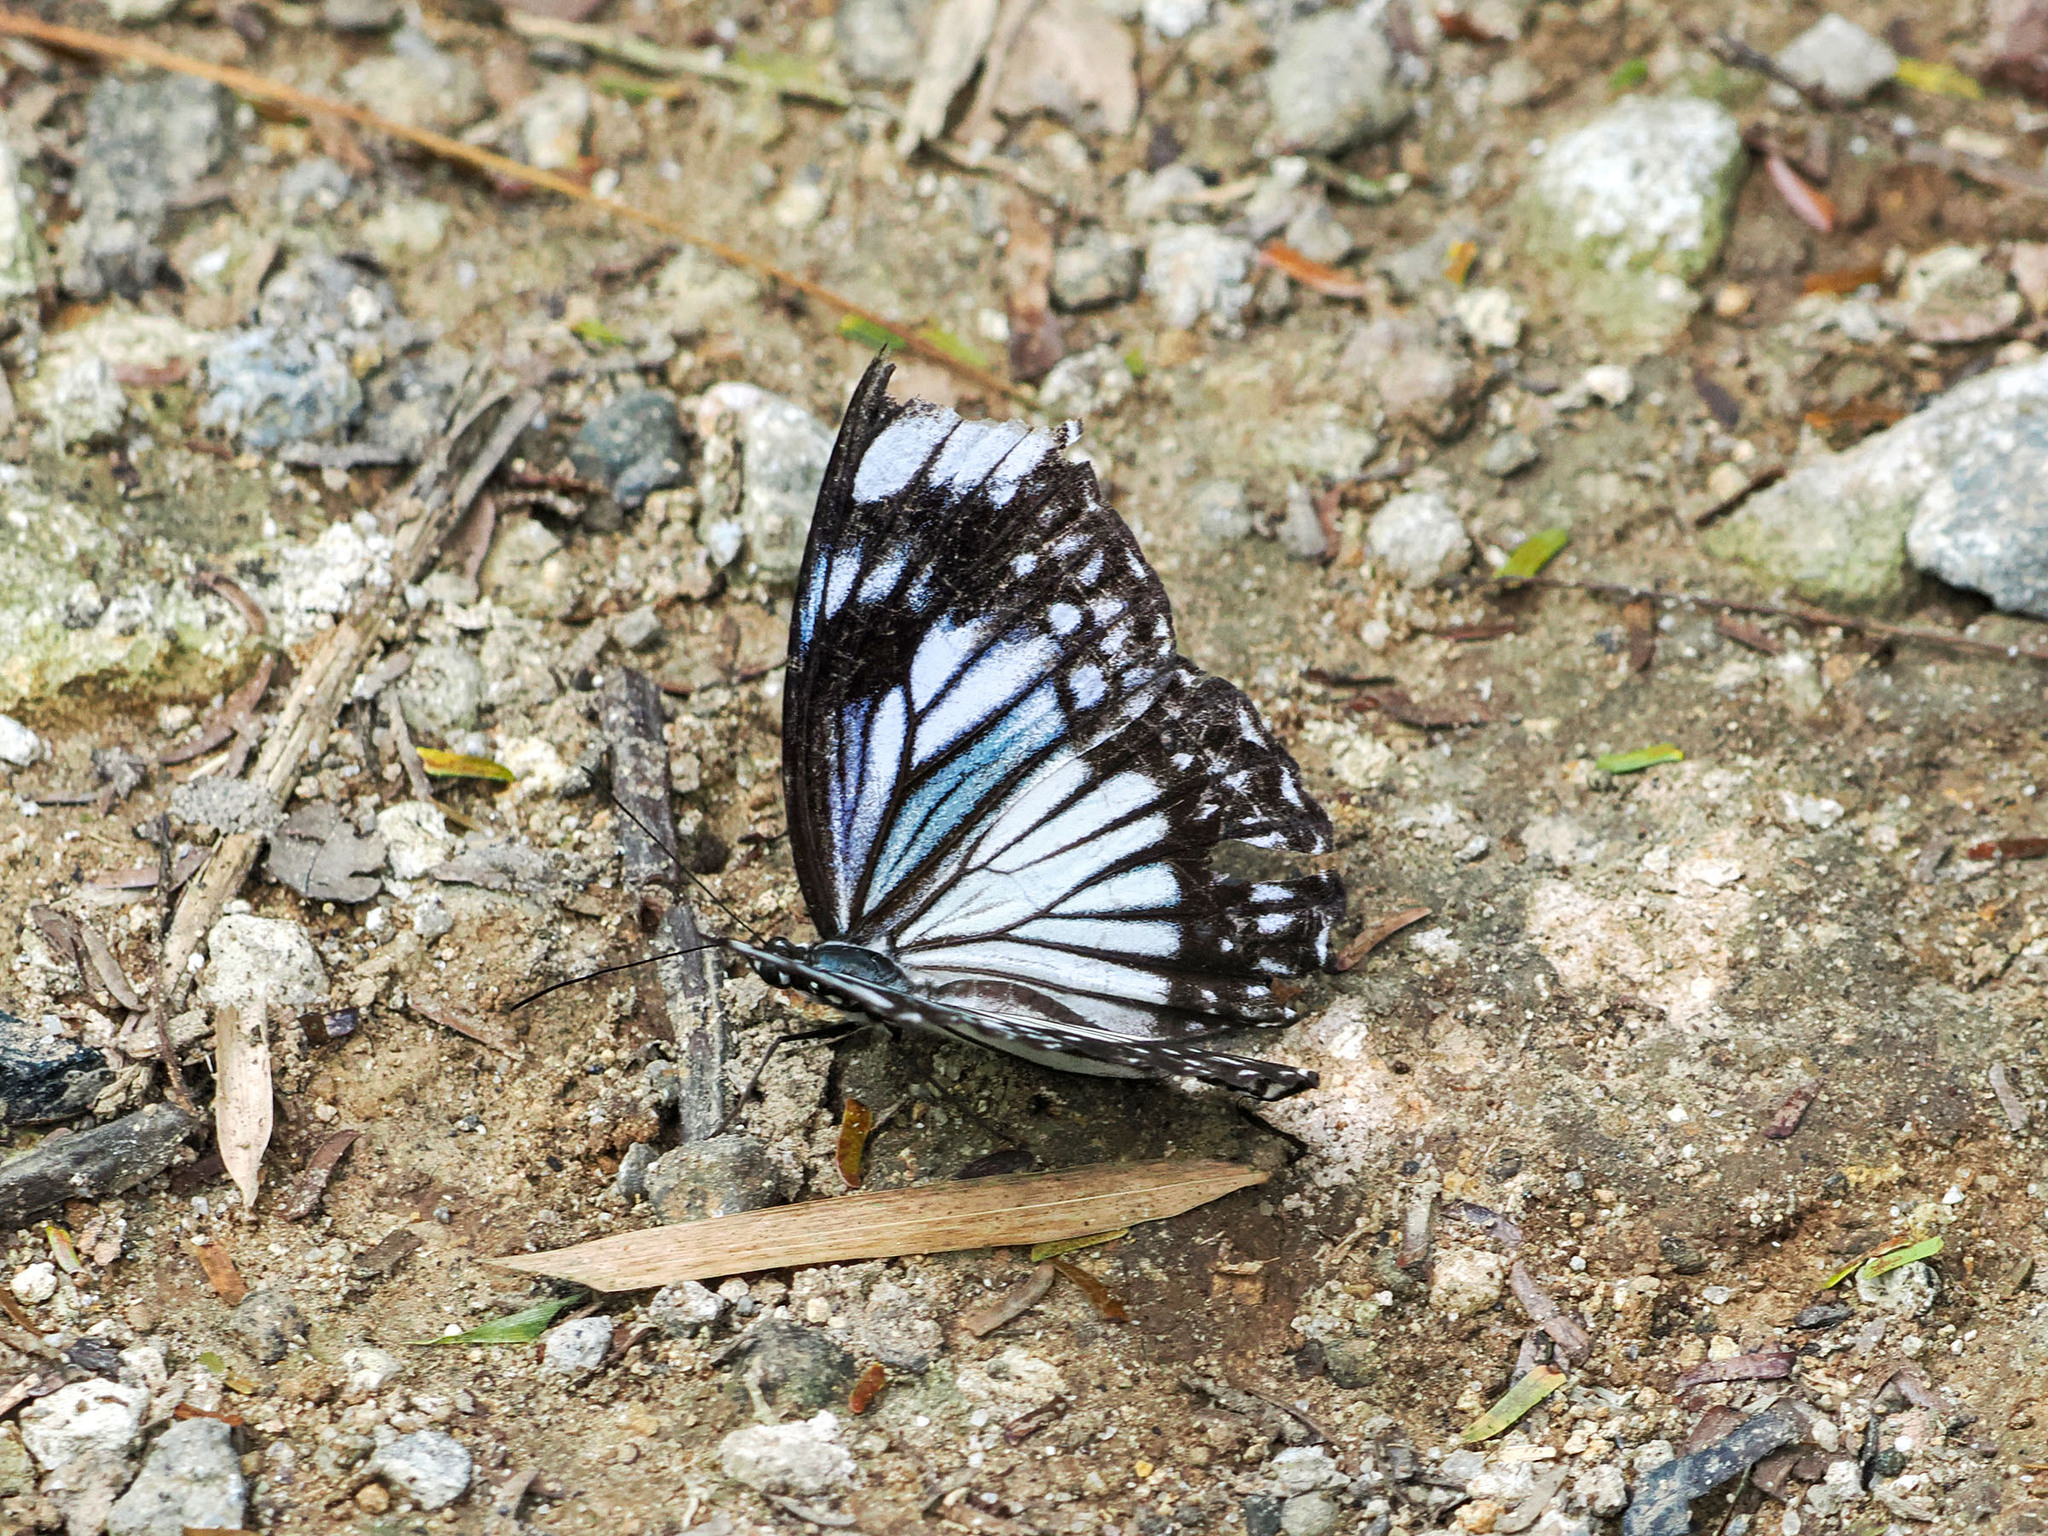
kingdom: Animalia
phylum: Arthropoda
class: Insecta
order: Lepidoptera
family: Nymphalidae
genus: Zethera
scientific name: Zethera pimplea
